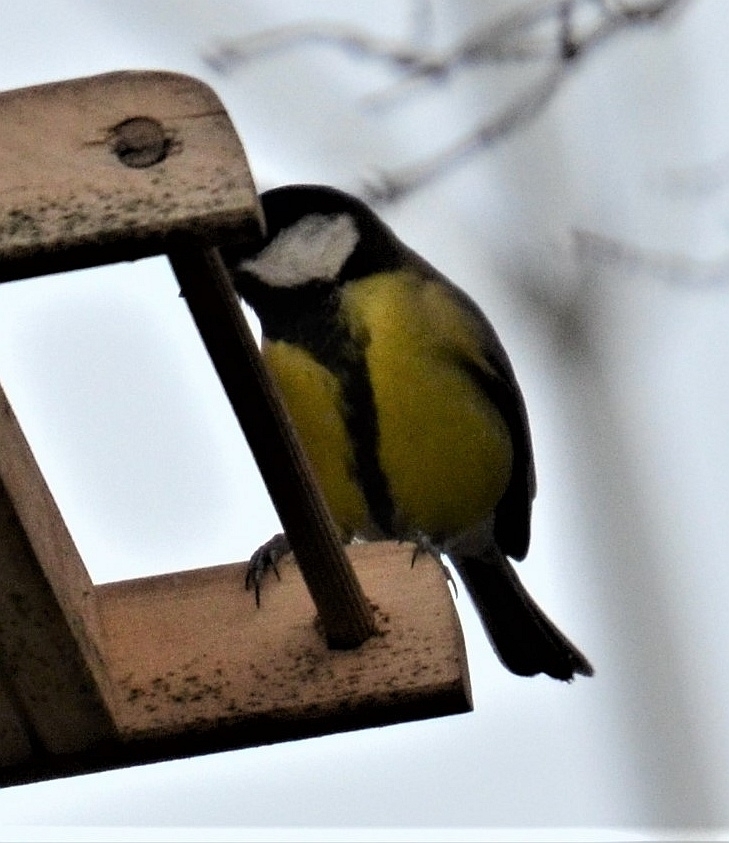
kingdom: Animalia
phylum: Chordata
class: Aves
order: Passeriformes
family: Paridae
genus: Parus
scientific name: Parus major
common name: Great tit
